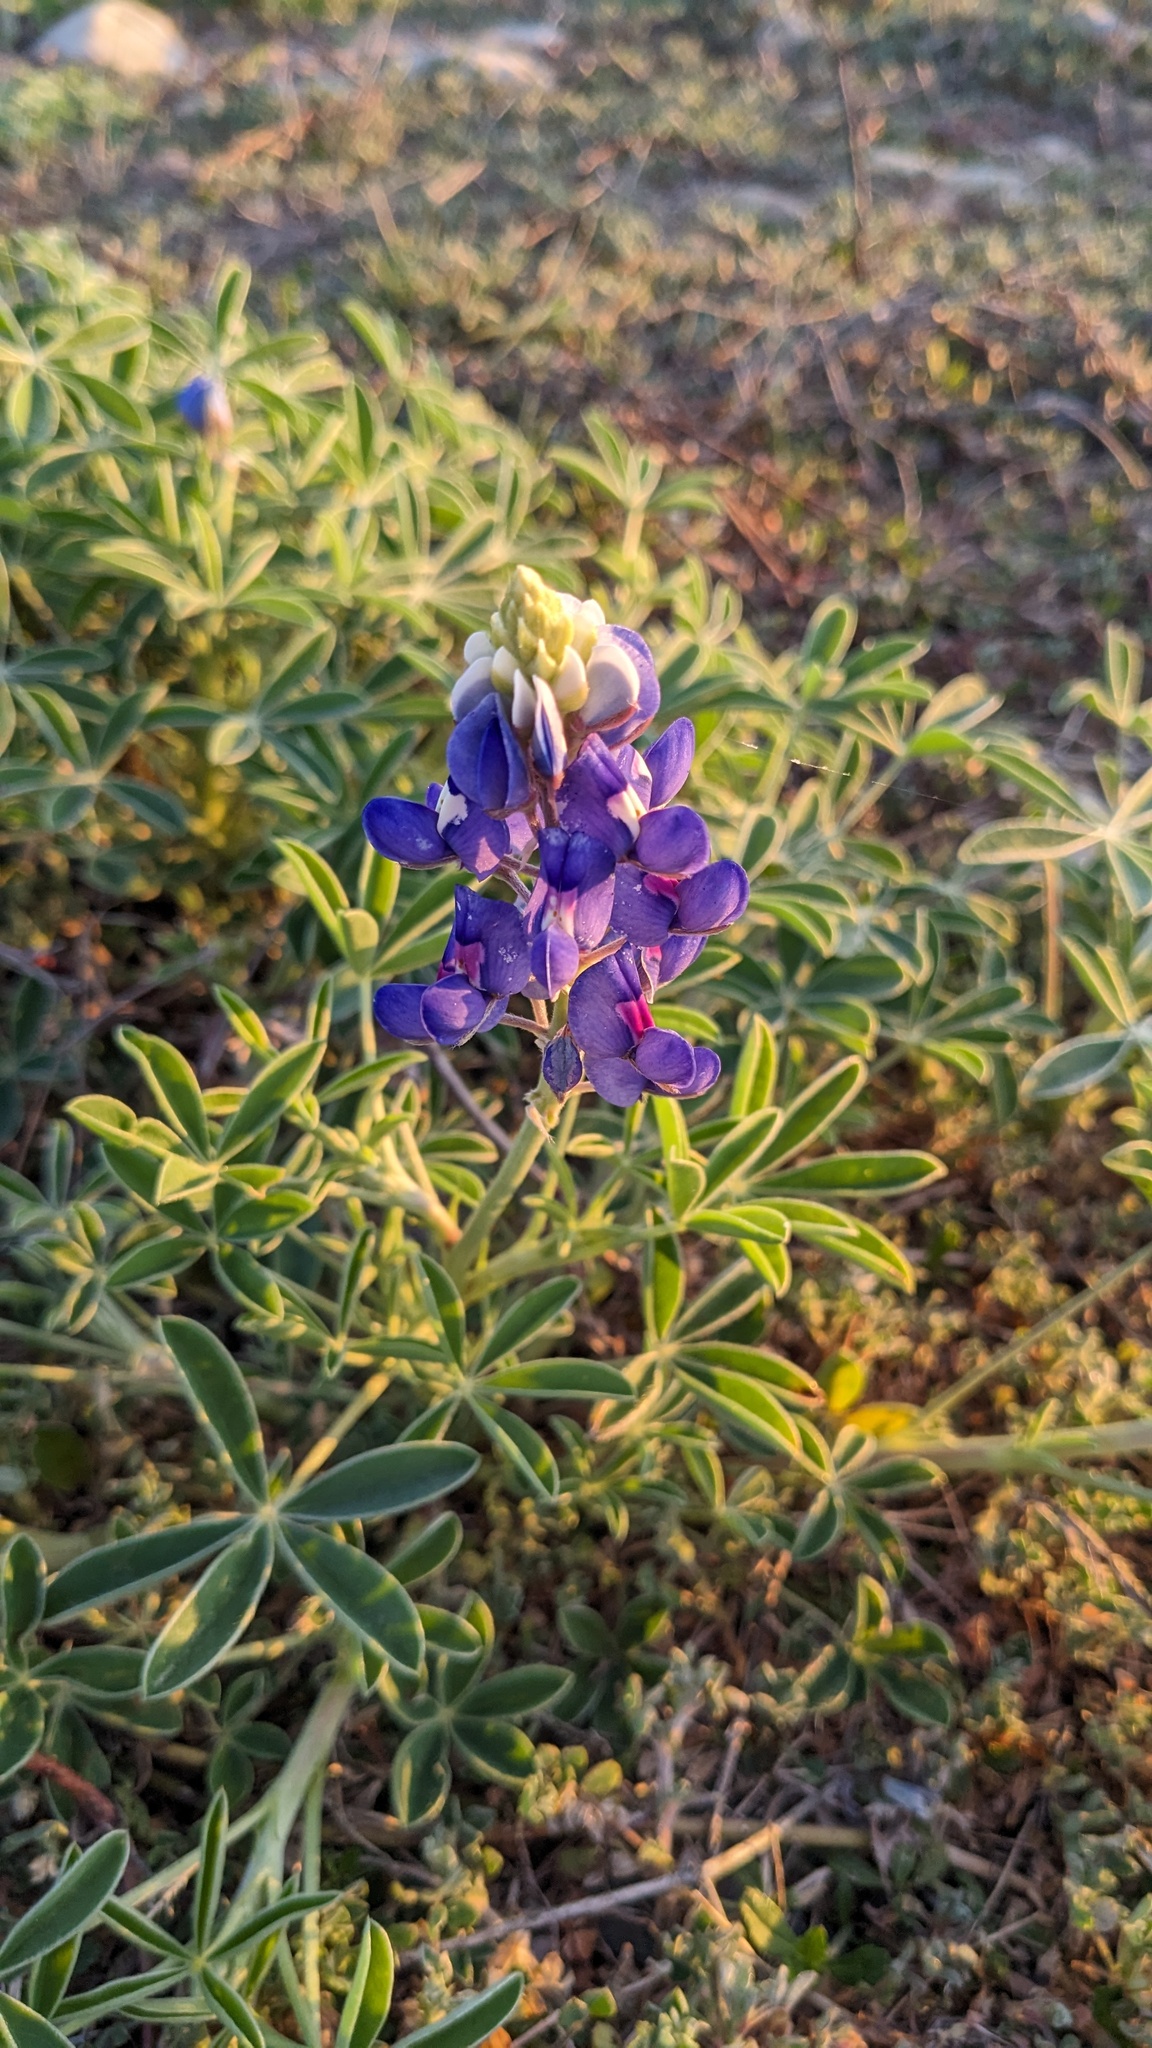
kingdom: Plantae
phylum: Tracheophyta
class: Magnoliopsida
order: Fabales
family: Fabaceae
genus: Lupinus
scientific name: Lupinus texensis
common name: Texas bluebonnet
